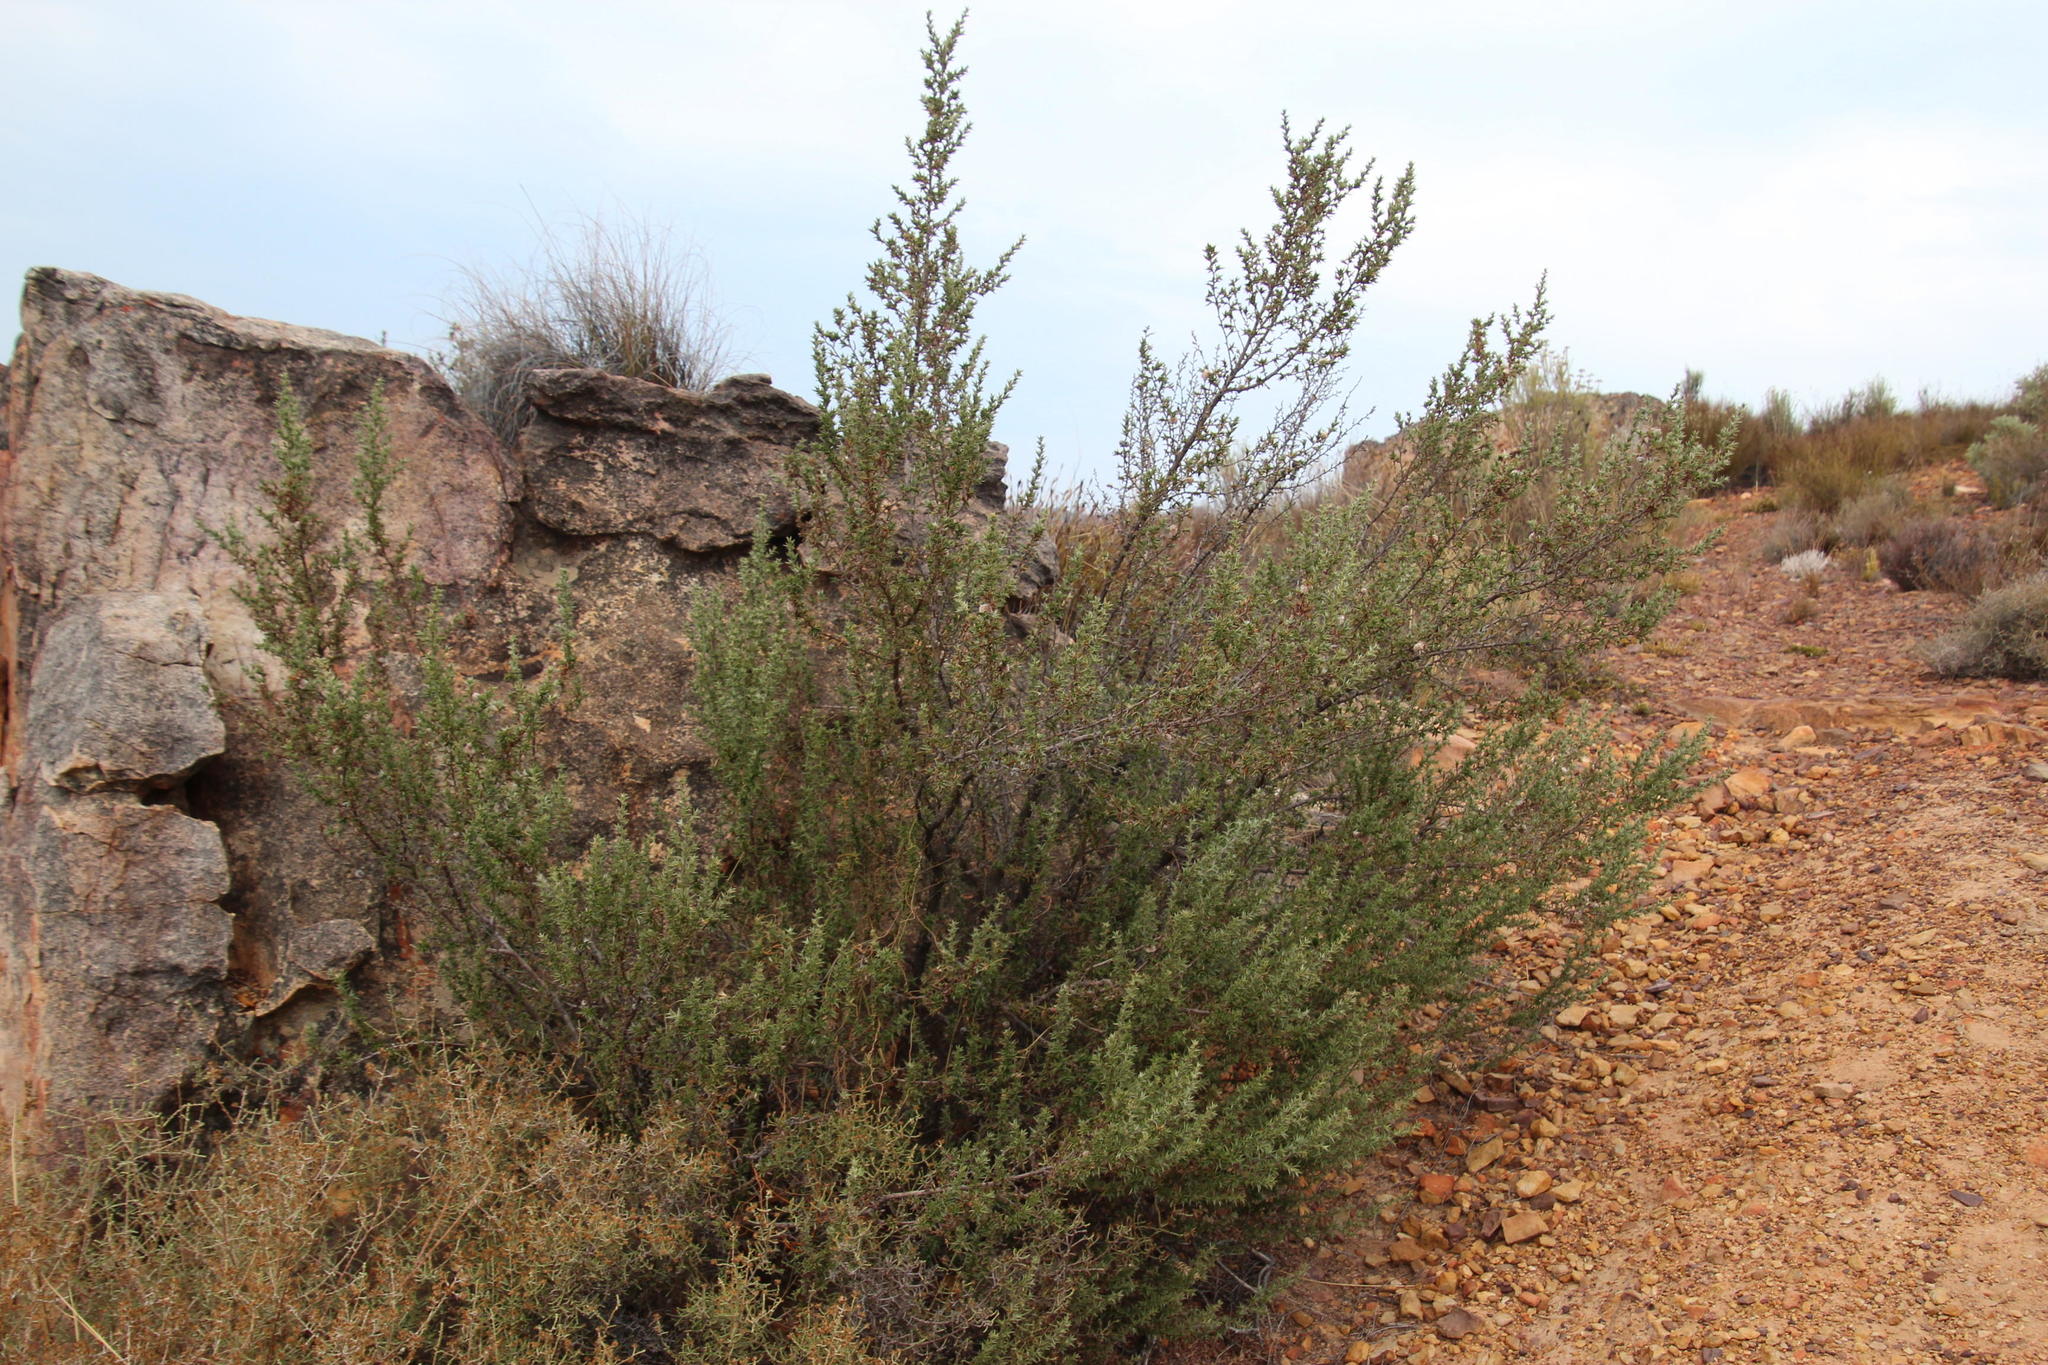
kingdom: Plantae
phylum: Tracheophyta
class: Magnoliopsida
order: Rosales
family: Rosaceae
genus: Cliffortia
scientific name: Cliffortia ruscifolia
